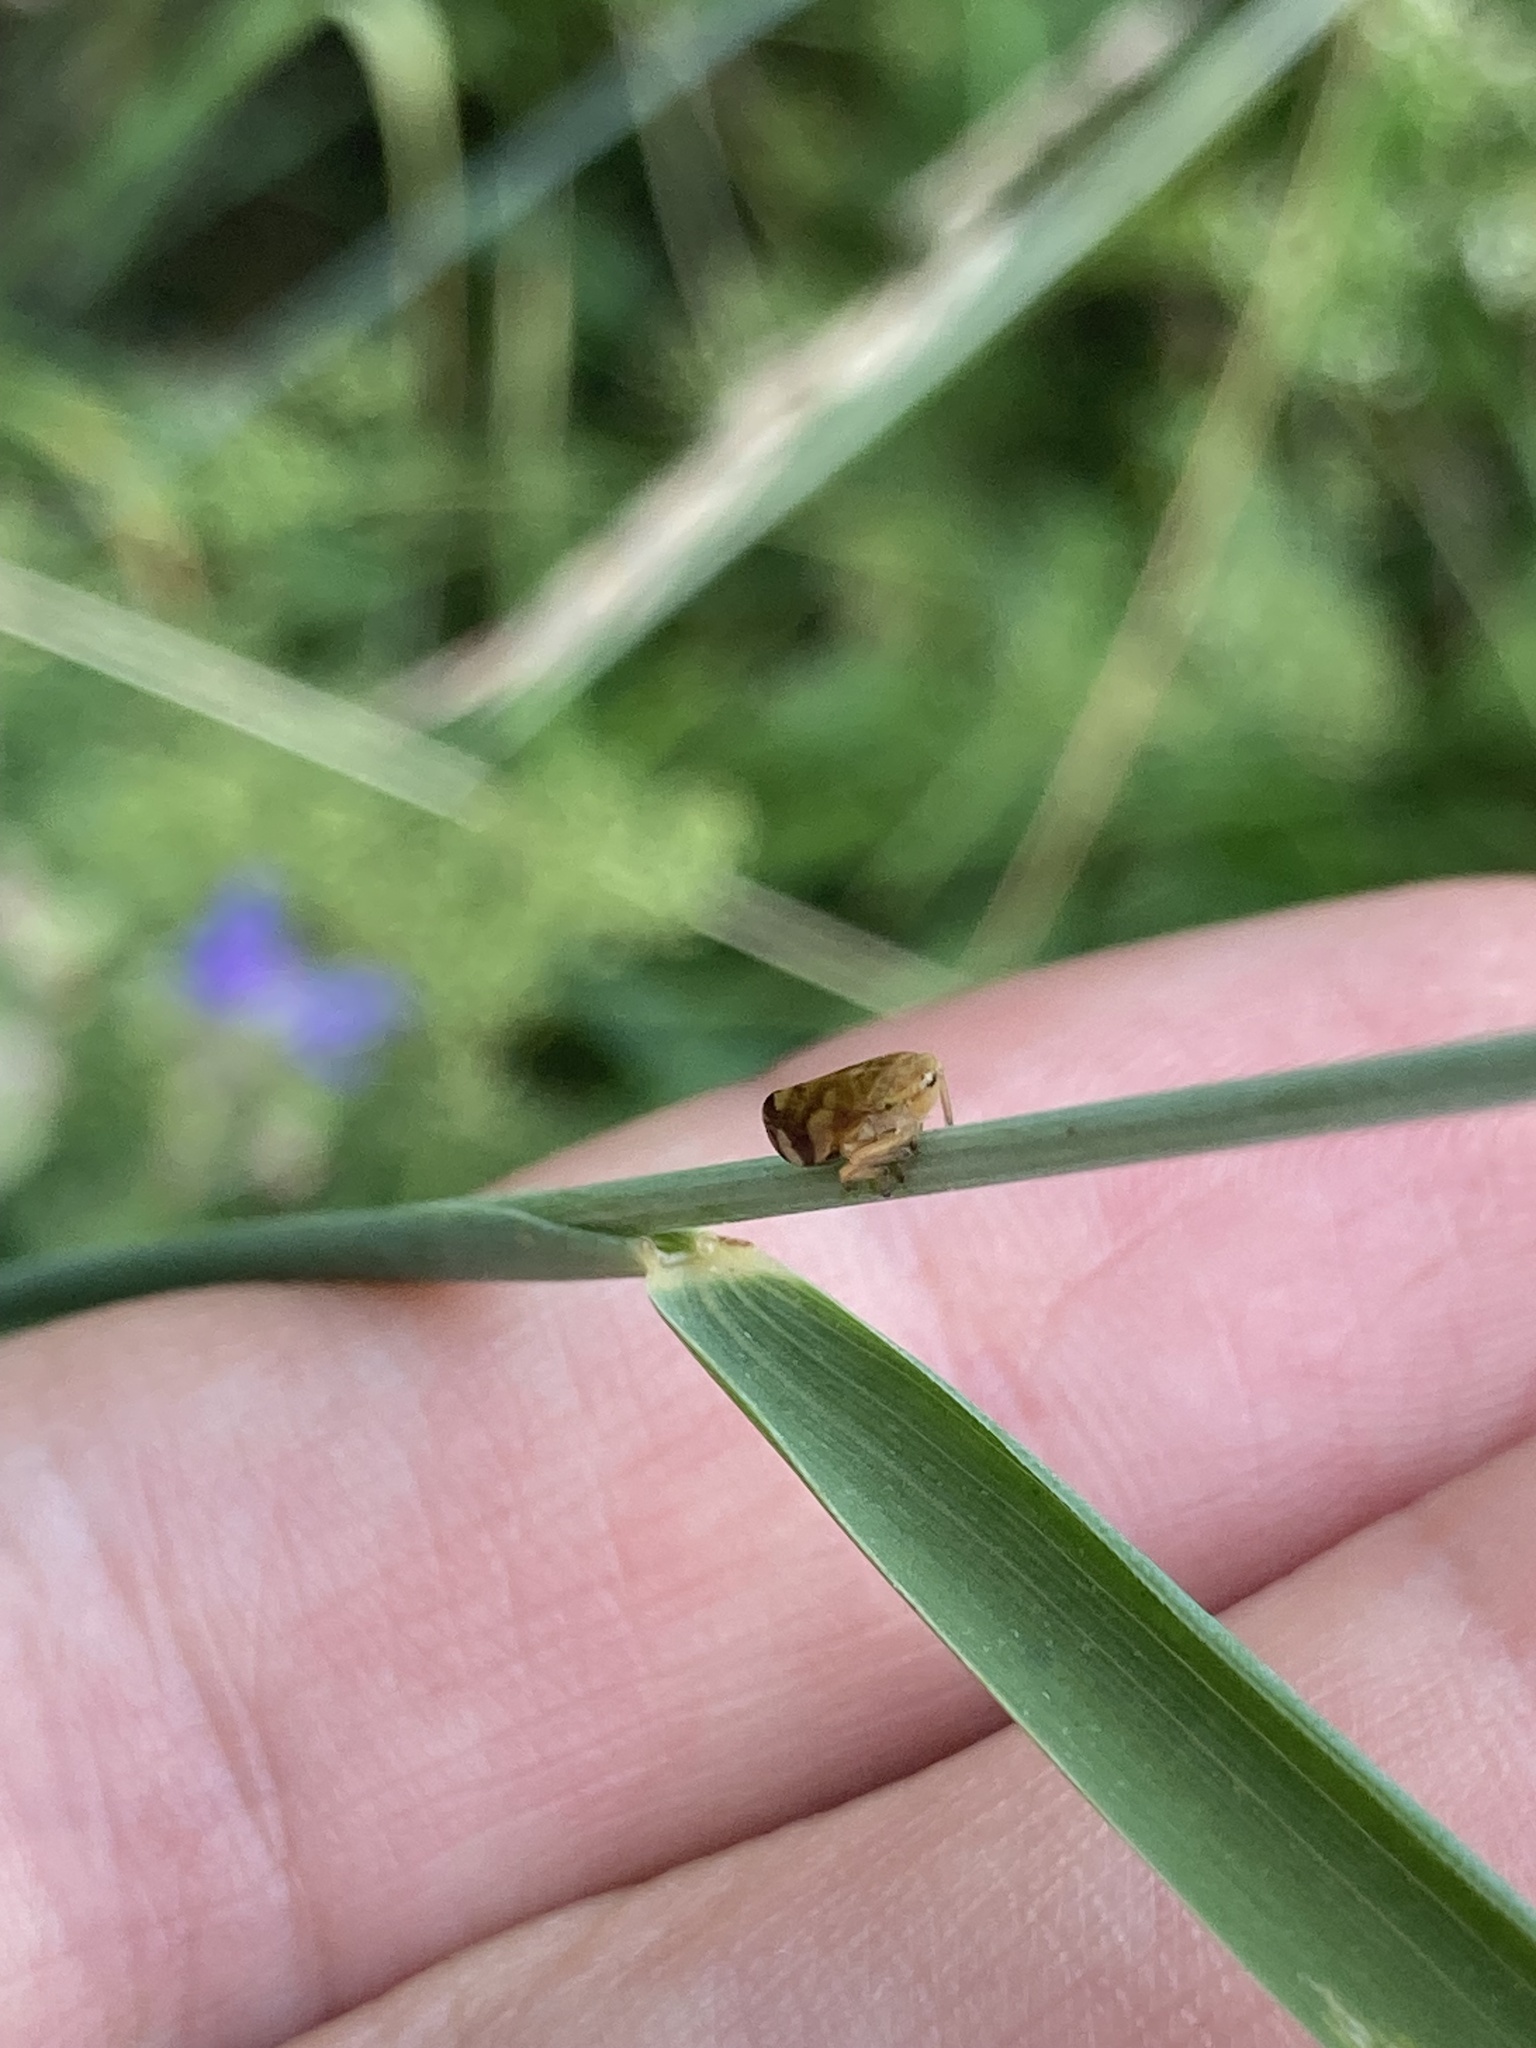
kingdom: Plantae
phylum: Tracheophyta
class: Liliopsida
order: Poales
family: Poaceae
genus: Elymus
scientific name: Elymus repens
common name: Quackgrass
